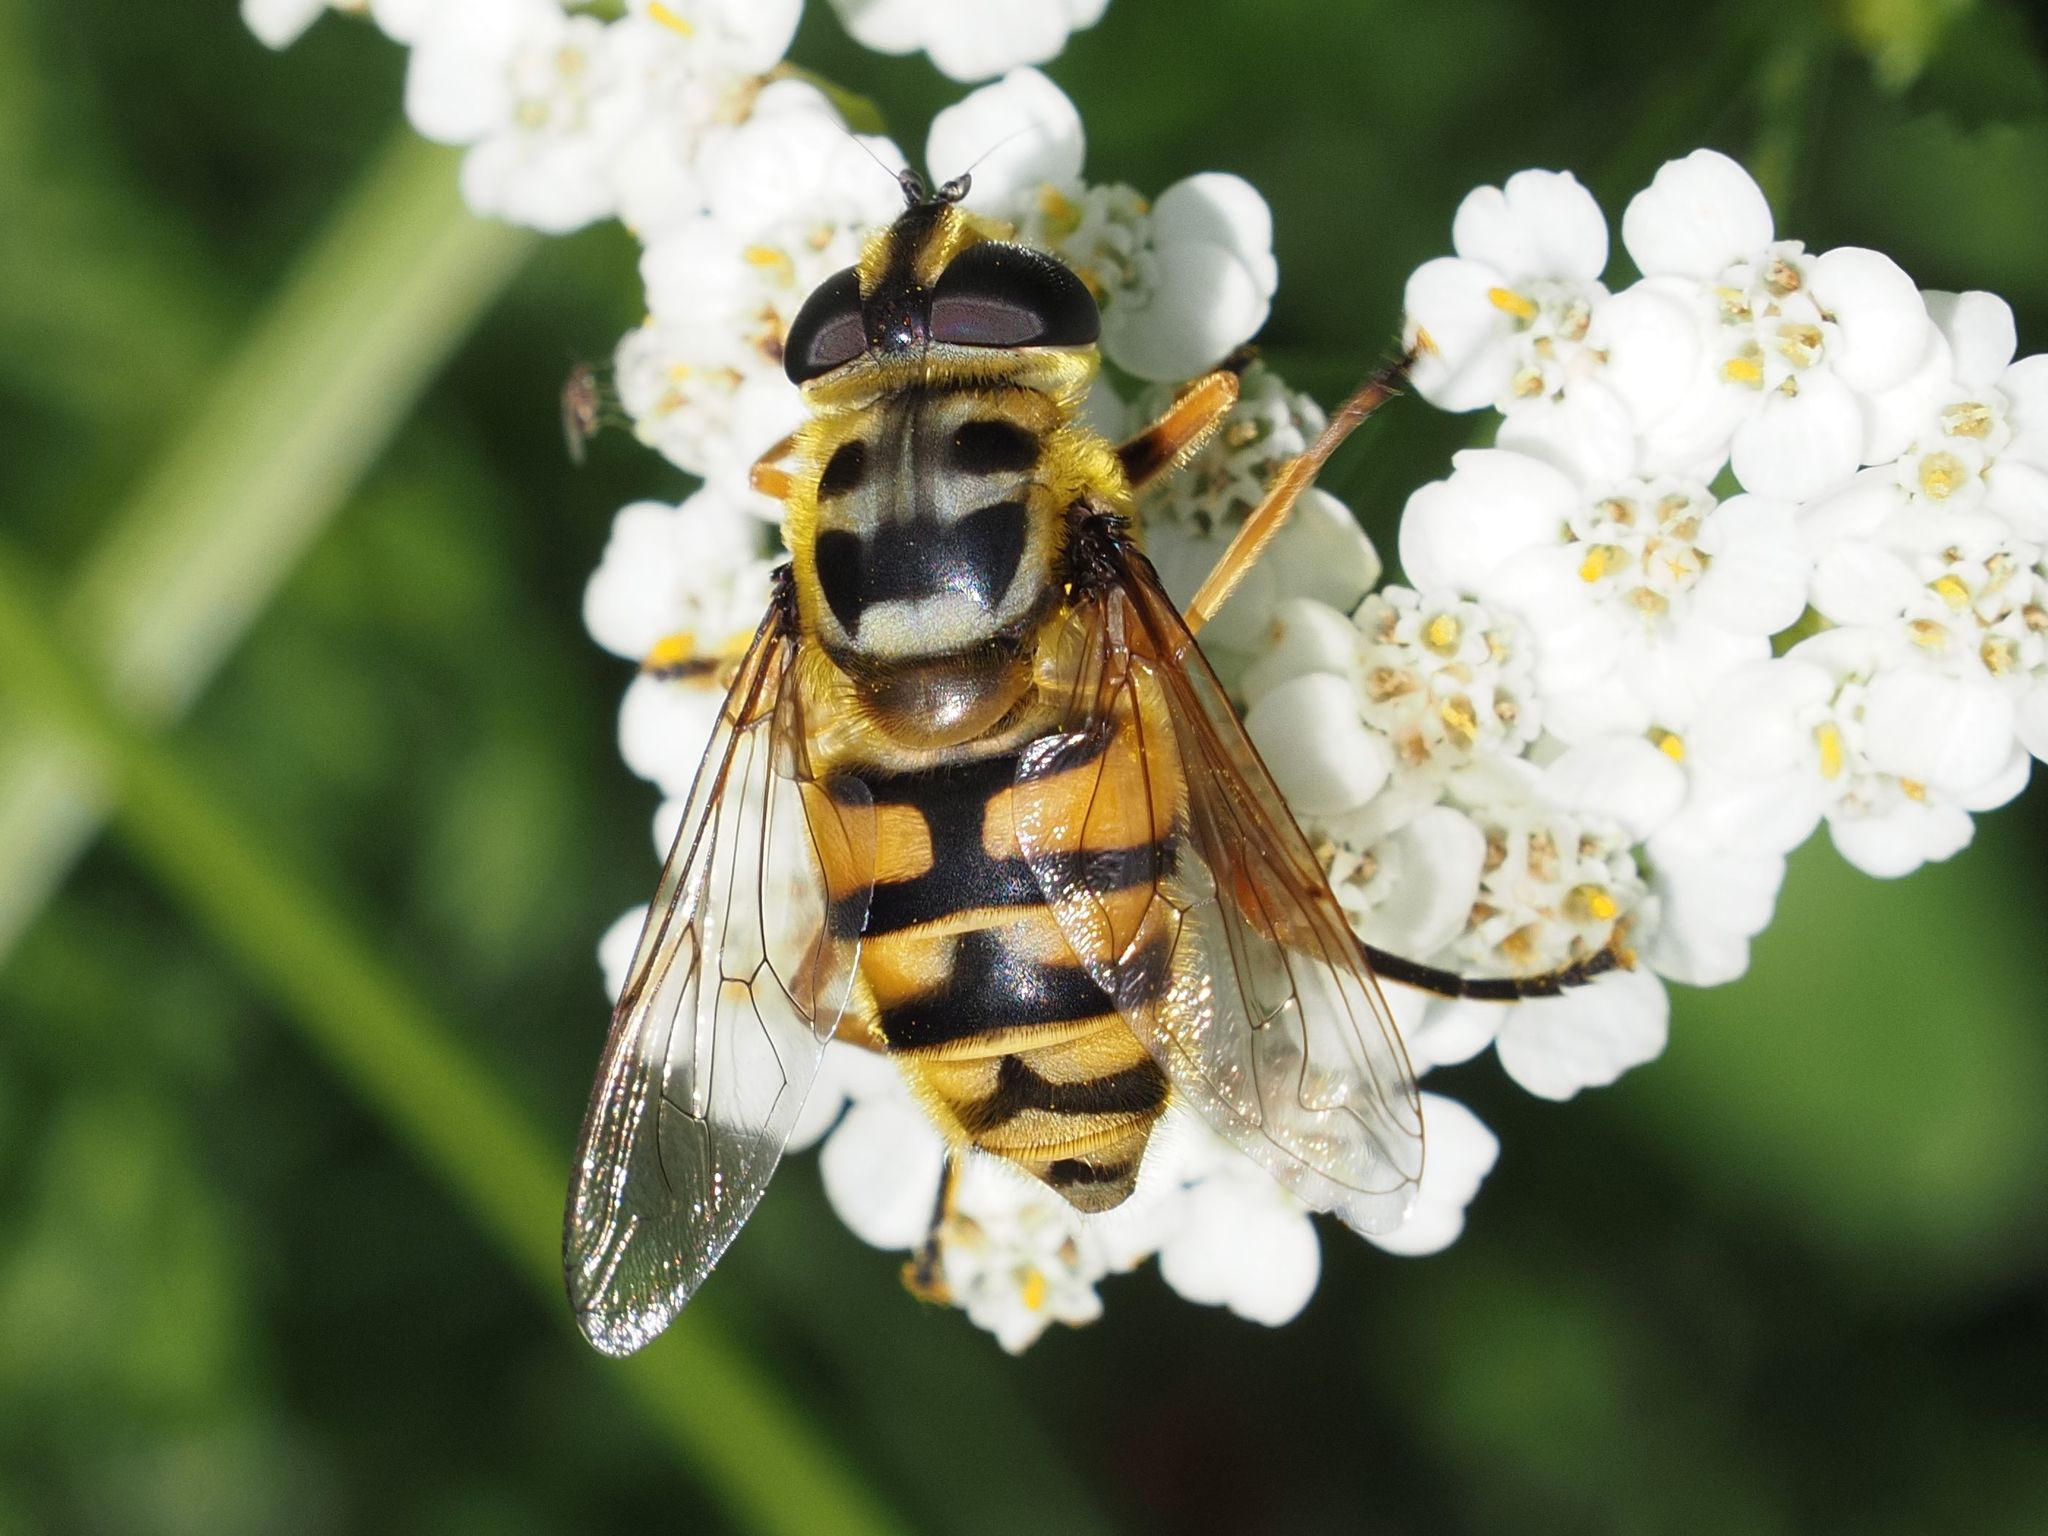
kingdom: Animalia
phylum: Arthropoda
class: Insecta
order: Diptera
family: Syrphidae
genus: Myathropa
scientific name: Myathropa florea
